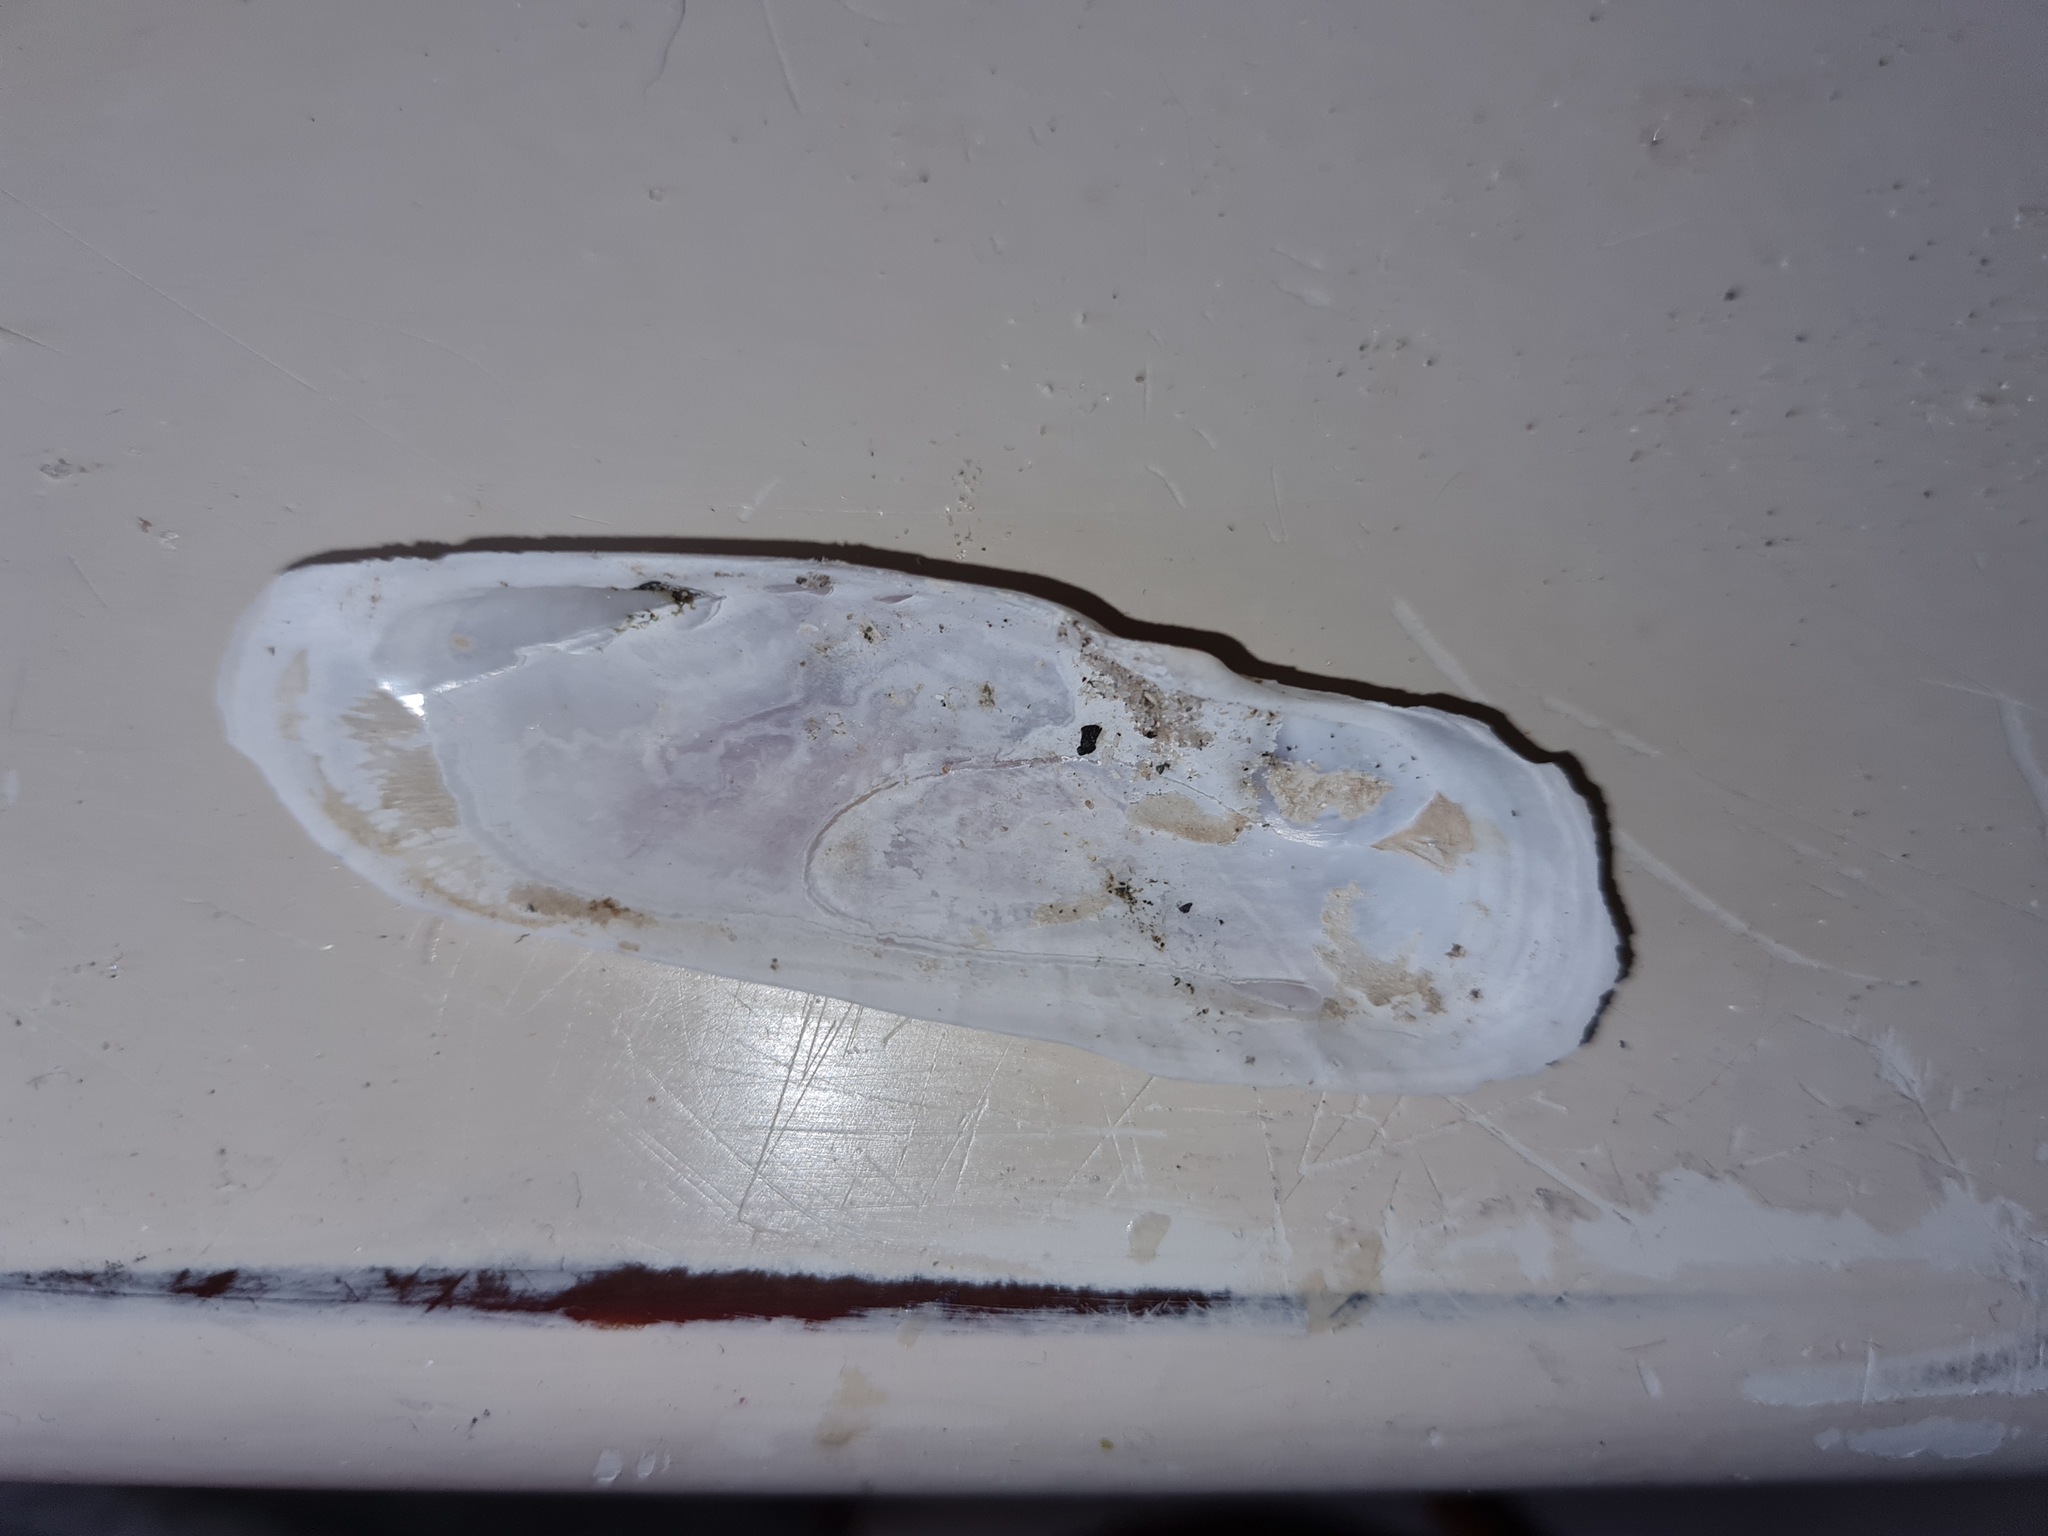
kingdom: Animalia
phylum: Mollusca
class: Bivalvia
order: Cardiida
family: Solecurtidae
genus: Tagelus
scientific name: Tagelus plebeius
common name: Stout tagelus
